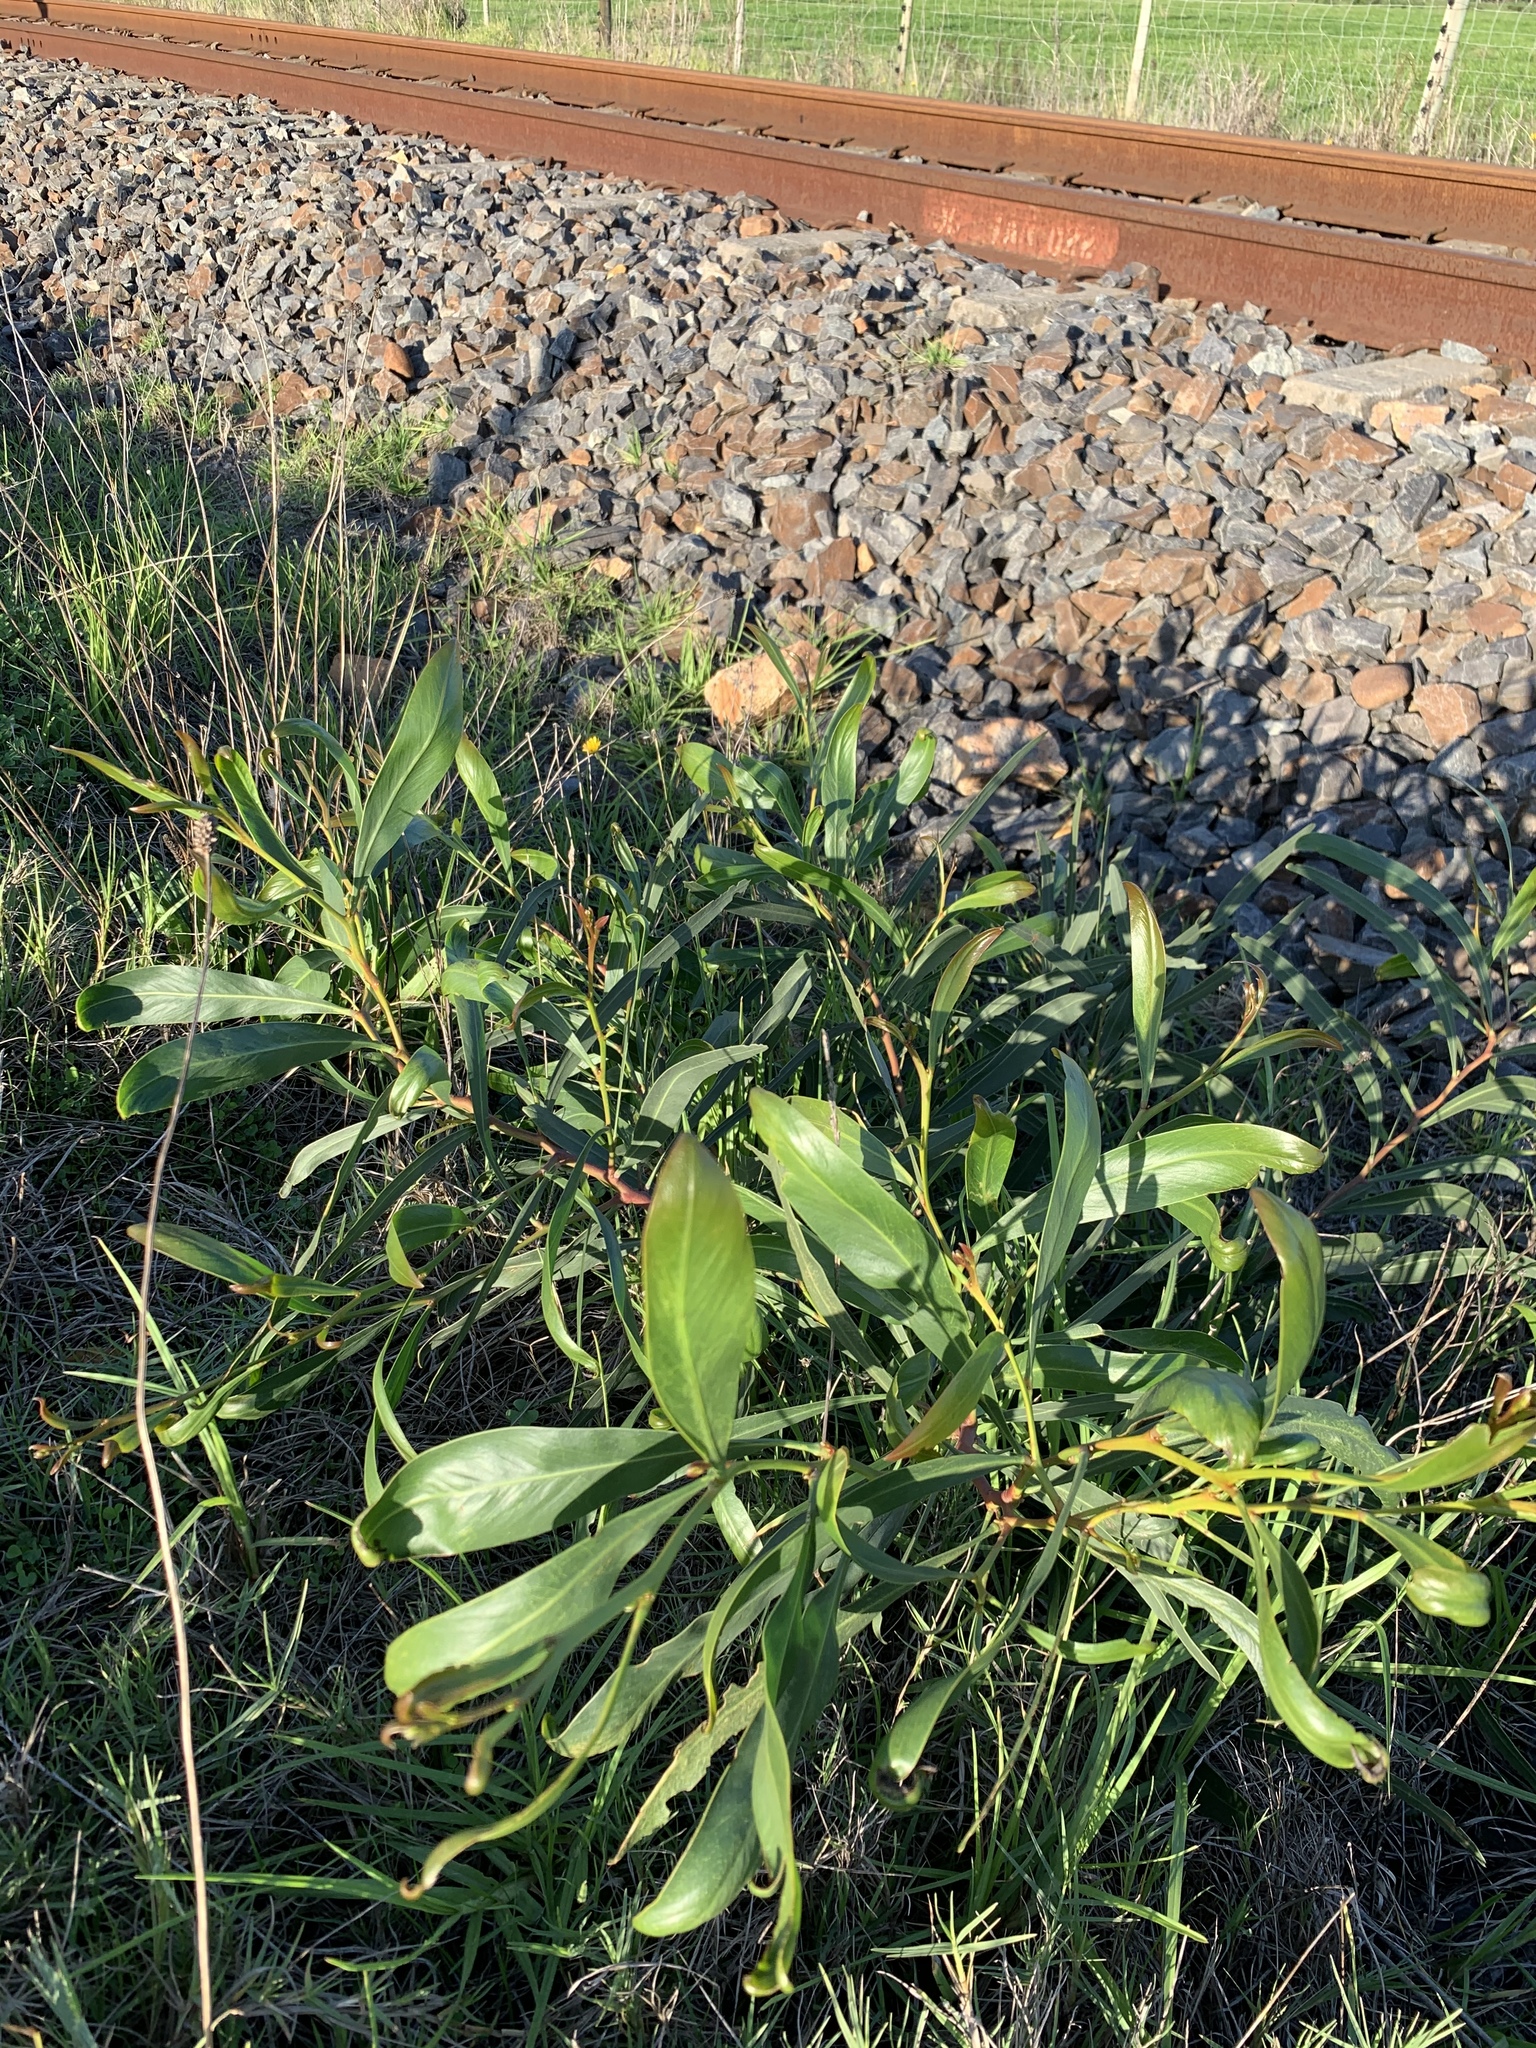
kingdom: Plantae
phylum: Tracheophyta
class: Magnoliopsida
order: Fabales
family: Fabaceae
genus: Acacia
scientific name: Acacia saligna
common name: Orange wattle
